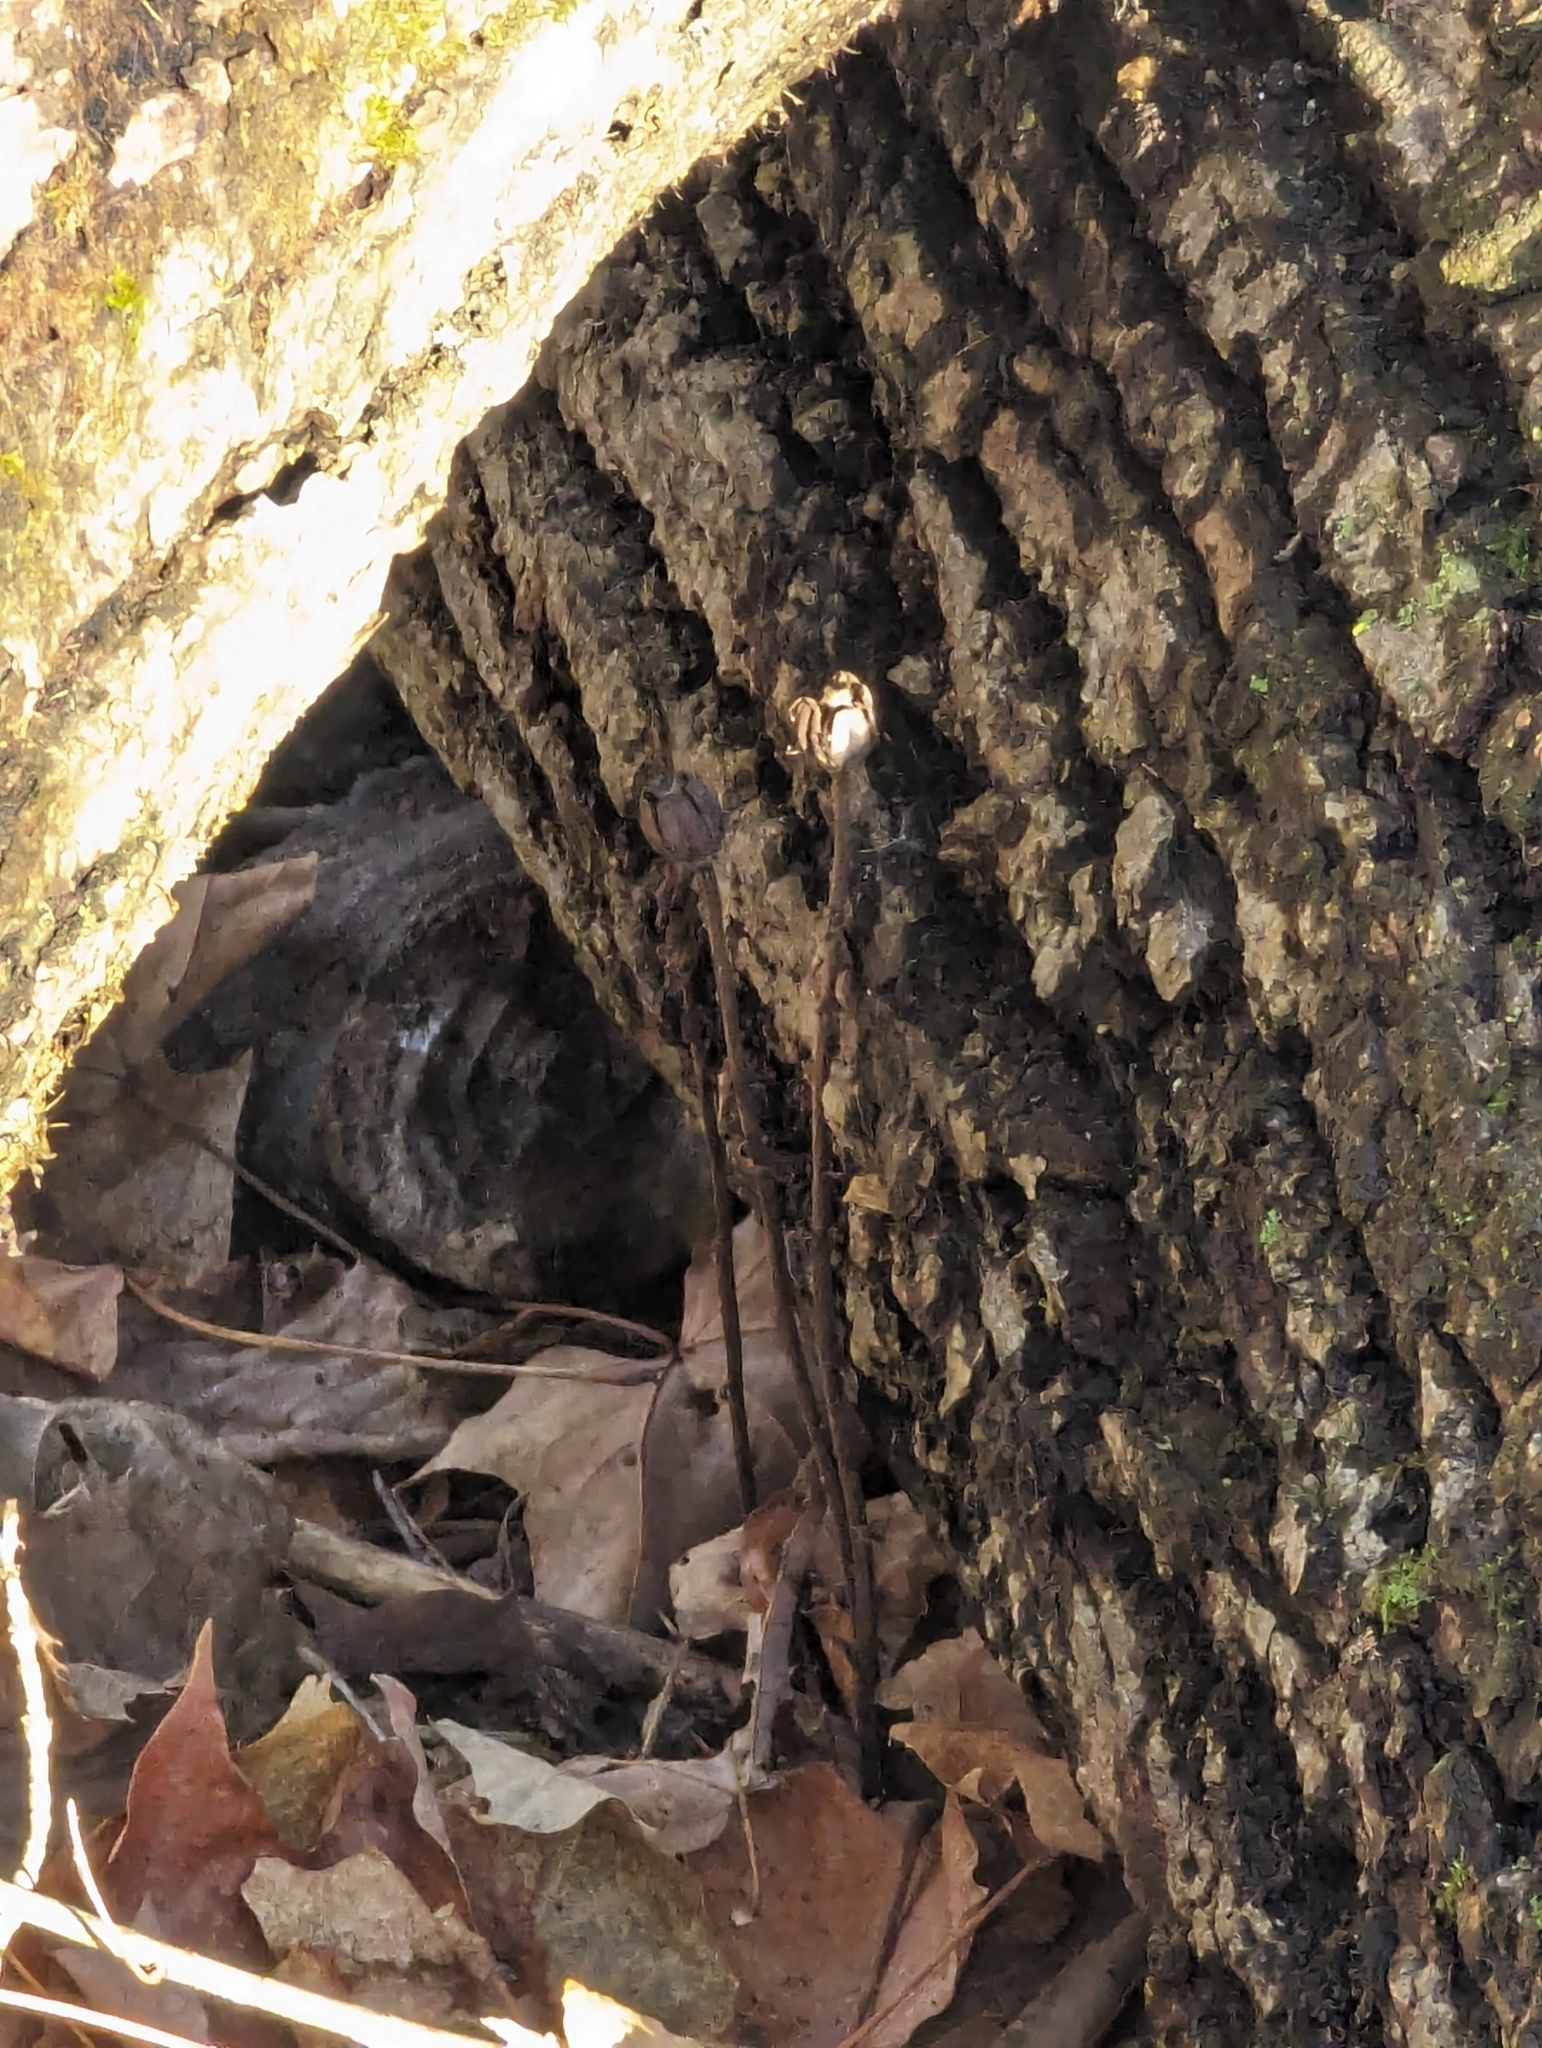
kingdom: Plantae
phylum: Tracheophyta
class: Magnoliopsida
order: Ericales
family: Ericaceae
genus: Monotropa
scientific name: Monotropa uniflora
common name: Convulsion root
